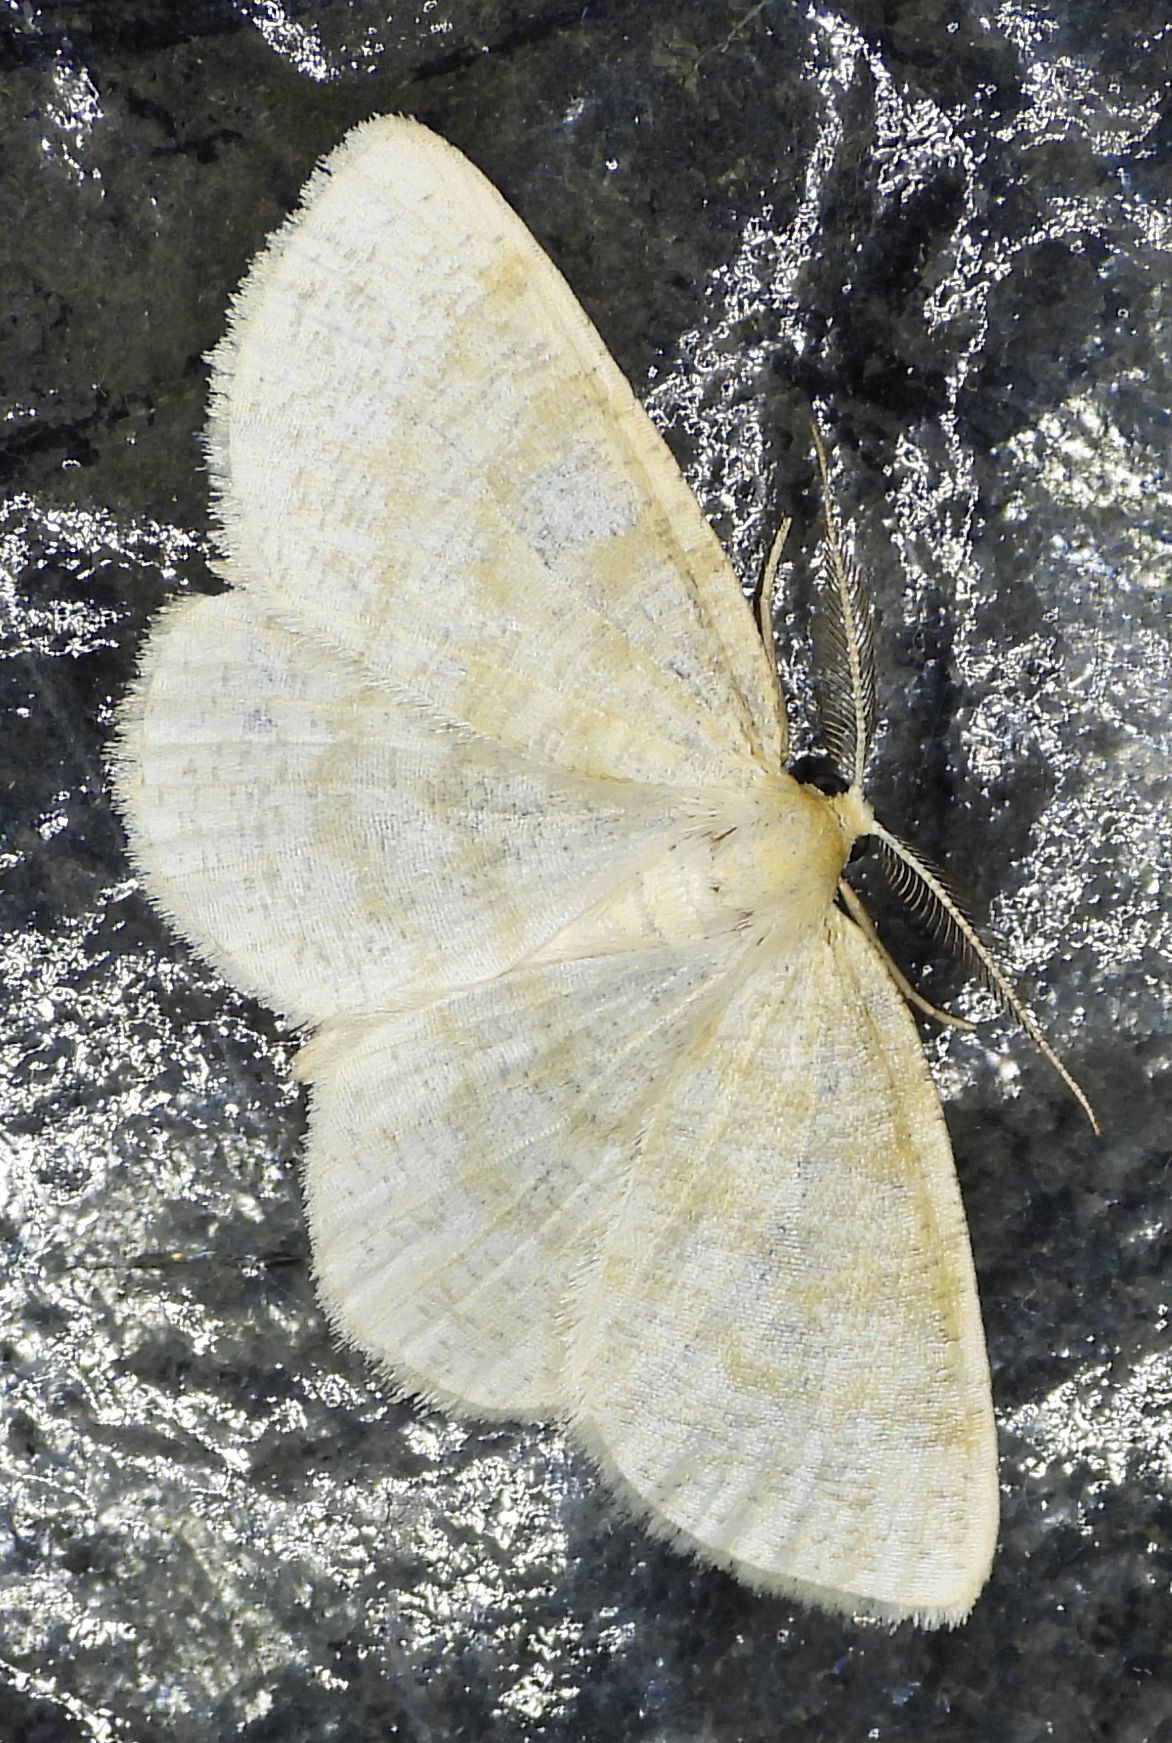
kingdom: Animalia
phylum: Arthropoda
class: Insecta
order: Lepidoptera
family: Geometridae
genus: Cabera
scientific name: Cabera erythemaria
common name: Yellow-dusted cream moth
